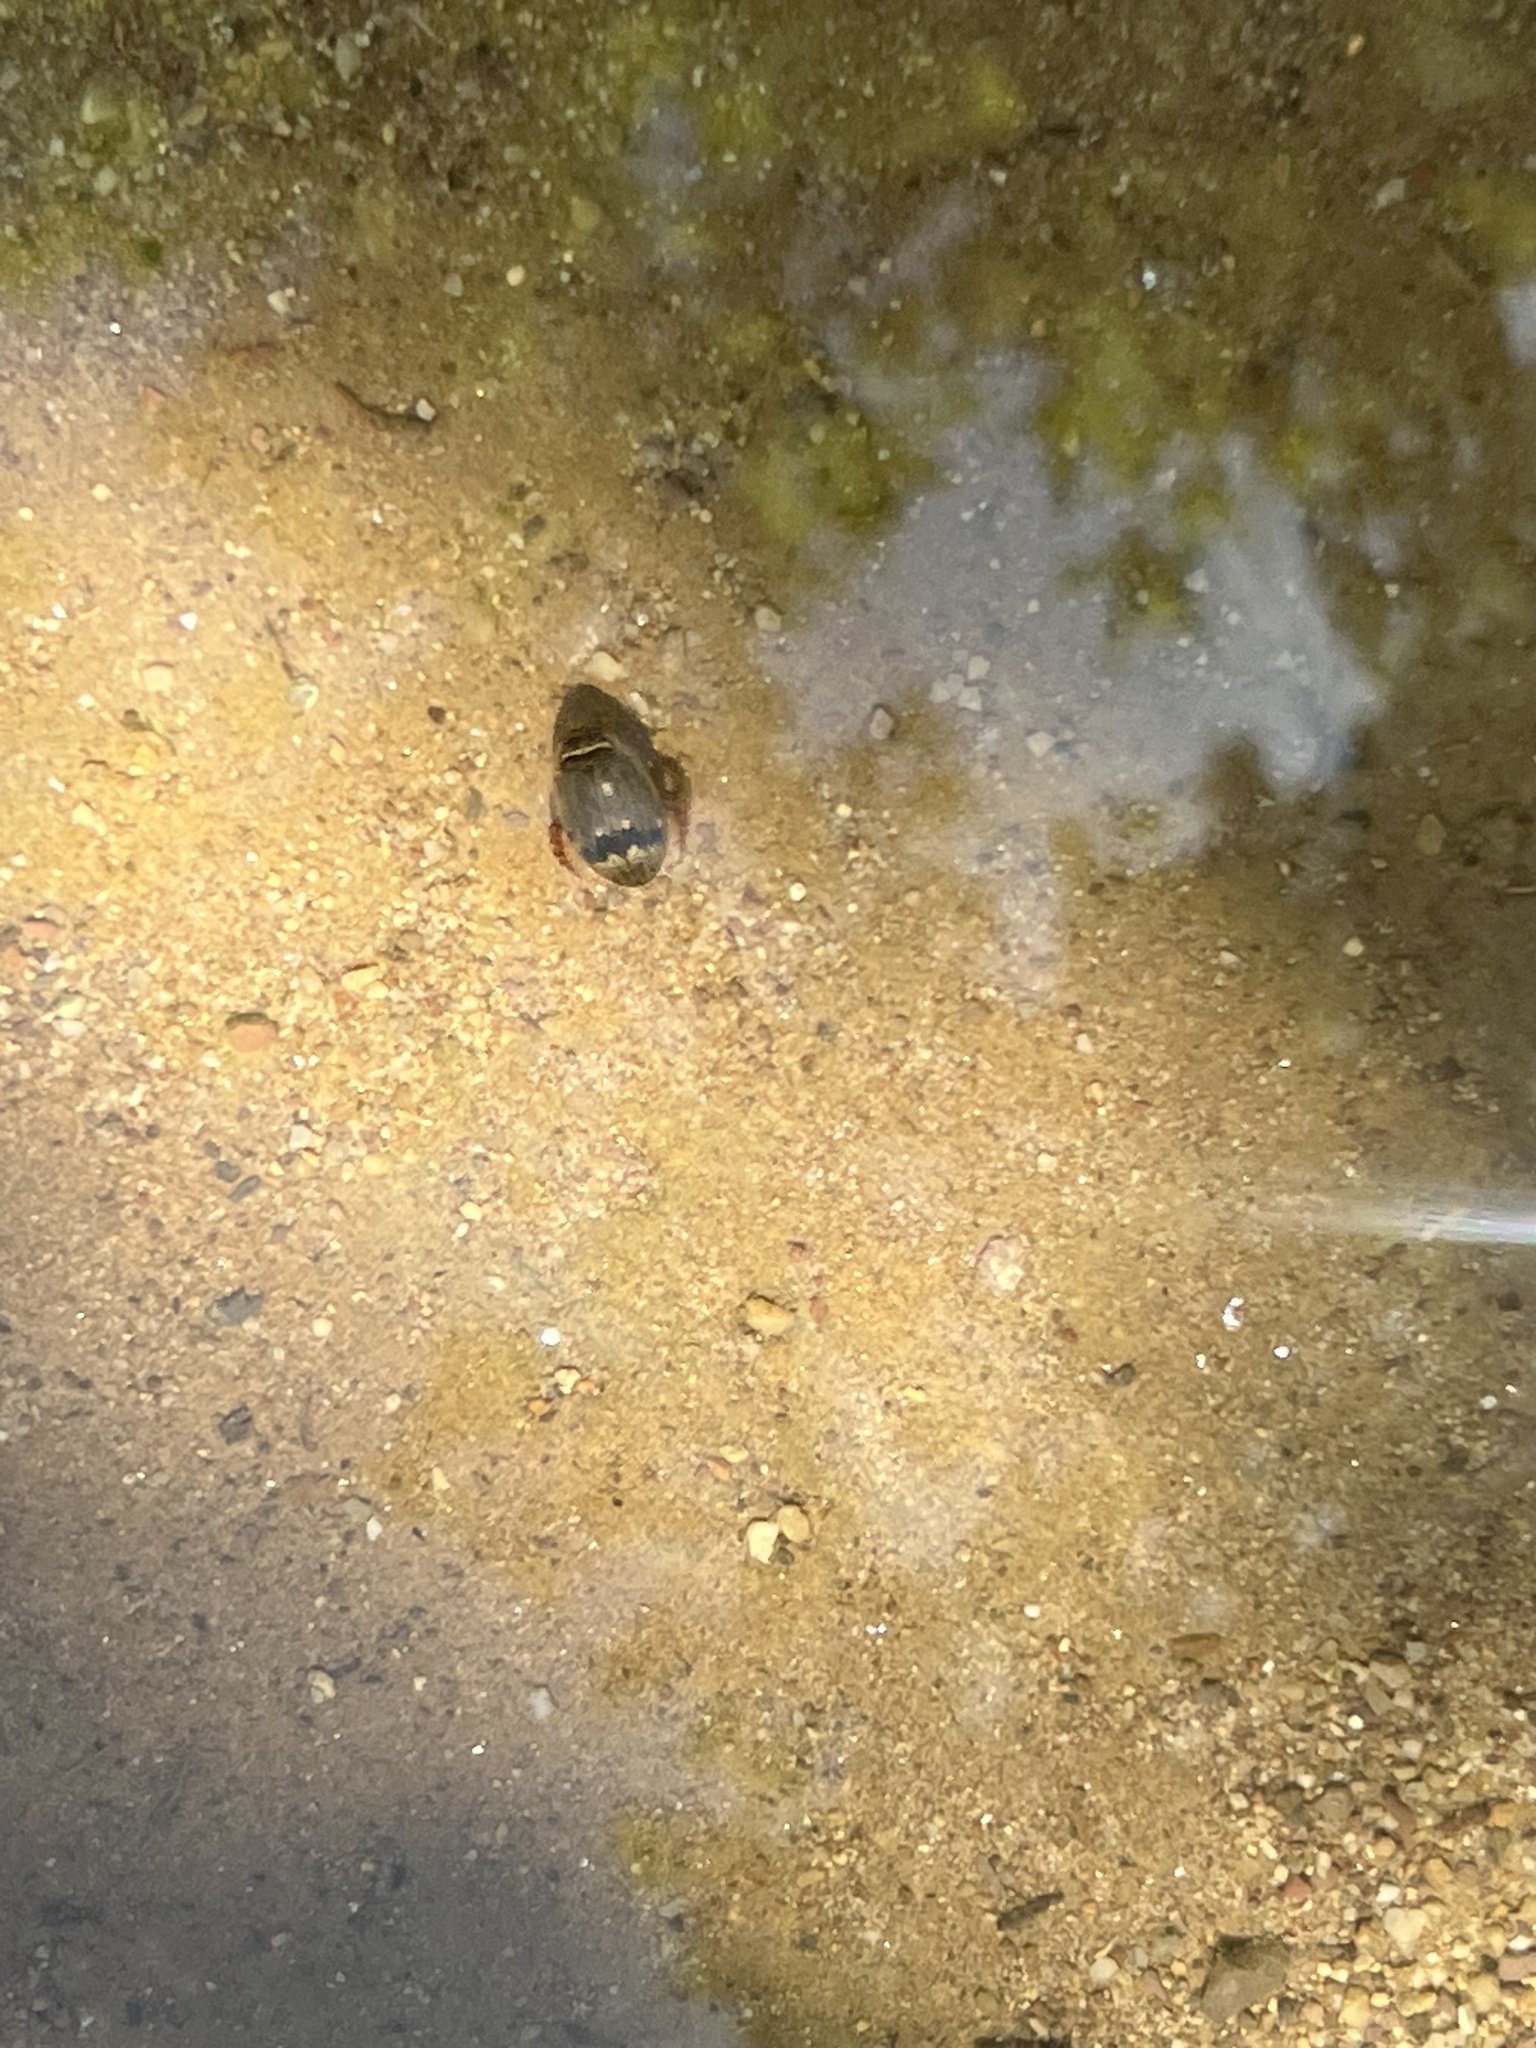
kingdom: Animalia
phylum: Arthropoda
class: Insecta
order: Coleoptera
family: Dytiscidae
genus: Thermonectus
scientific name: Thermonectus nigrofasciatus
